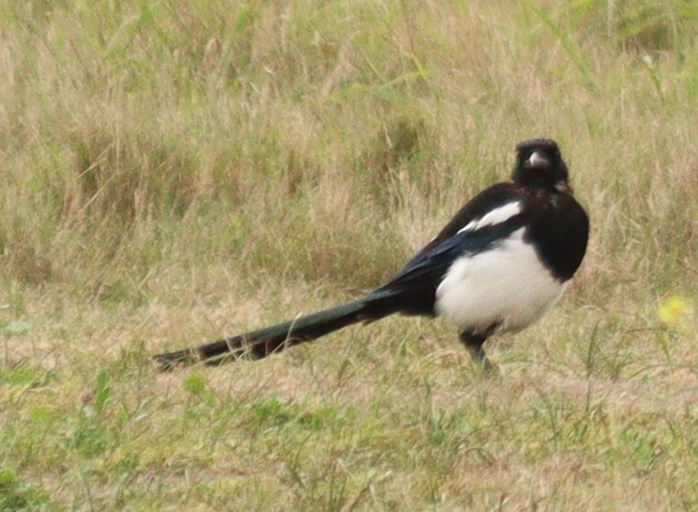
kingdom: Animalia
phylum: Chordata
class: Aves
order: Passeriformes
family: Corvidae
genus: Pica
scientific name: Pica pica
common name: Eurasian magpie
